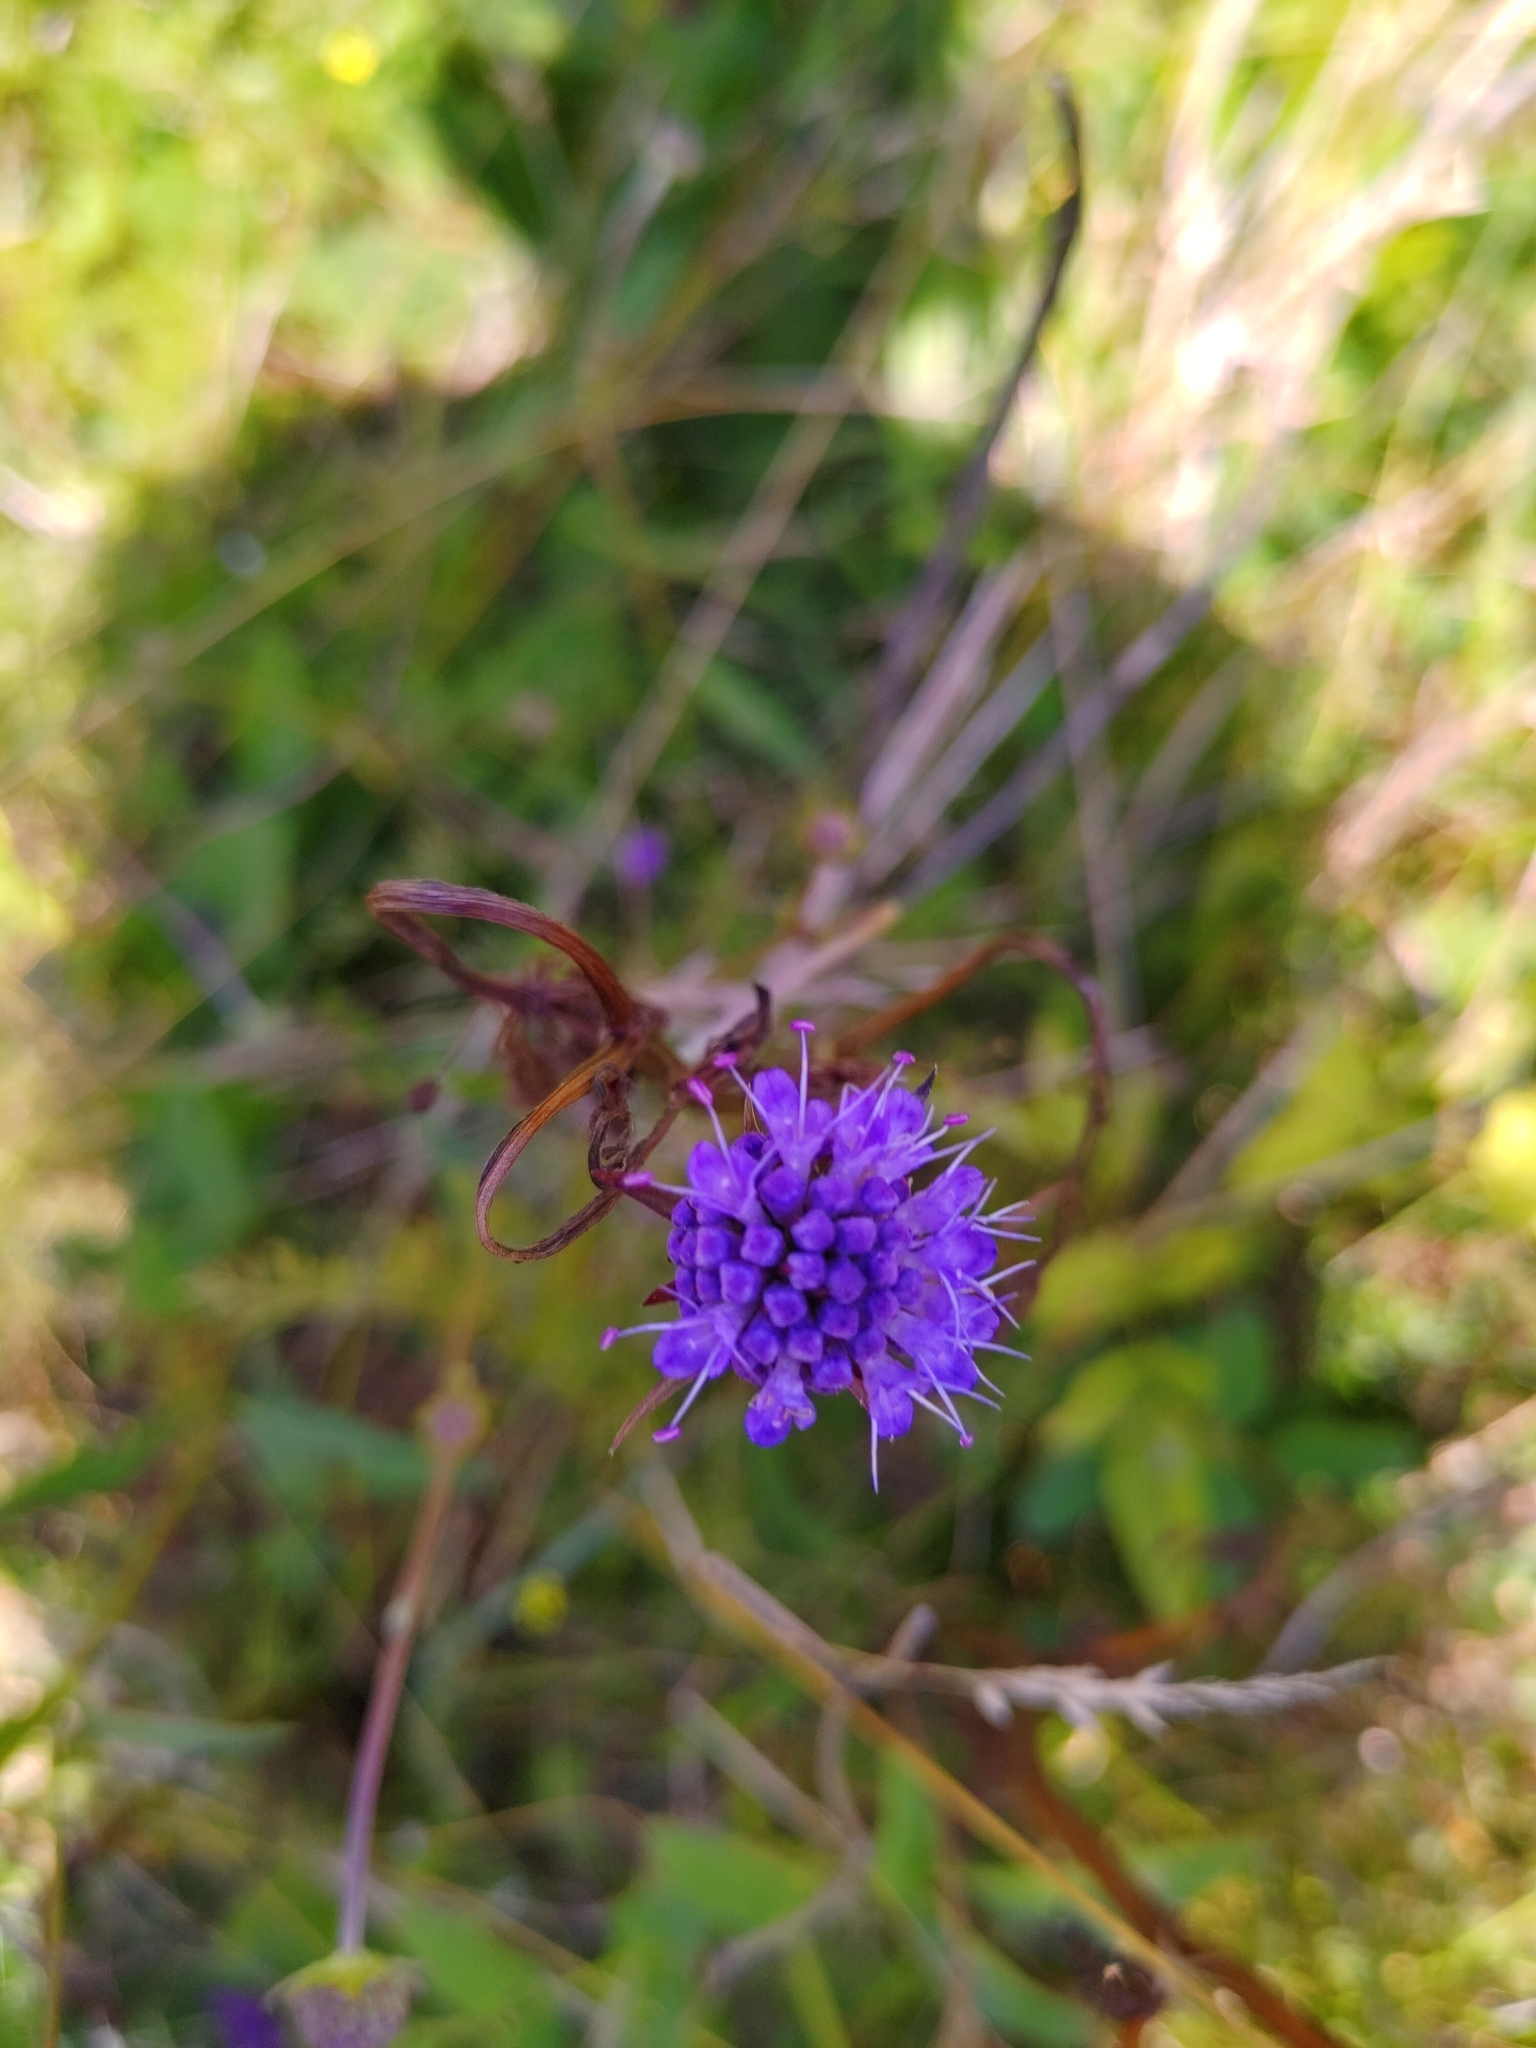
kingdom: Plantae
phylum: Tracheophyta
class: Magnoliopsida
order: Dipsacales
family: Caprifoliaceae
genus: Succisa
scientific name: Succisa pratensis
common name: Devil's-bit
